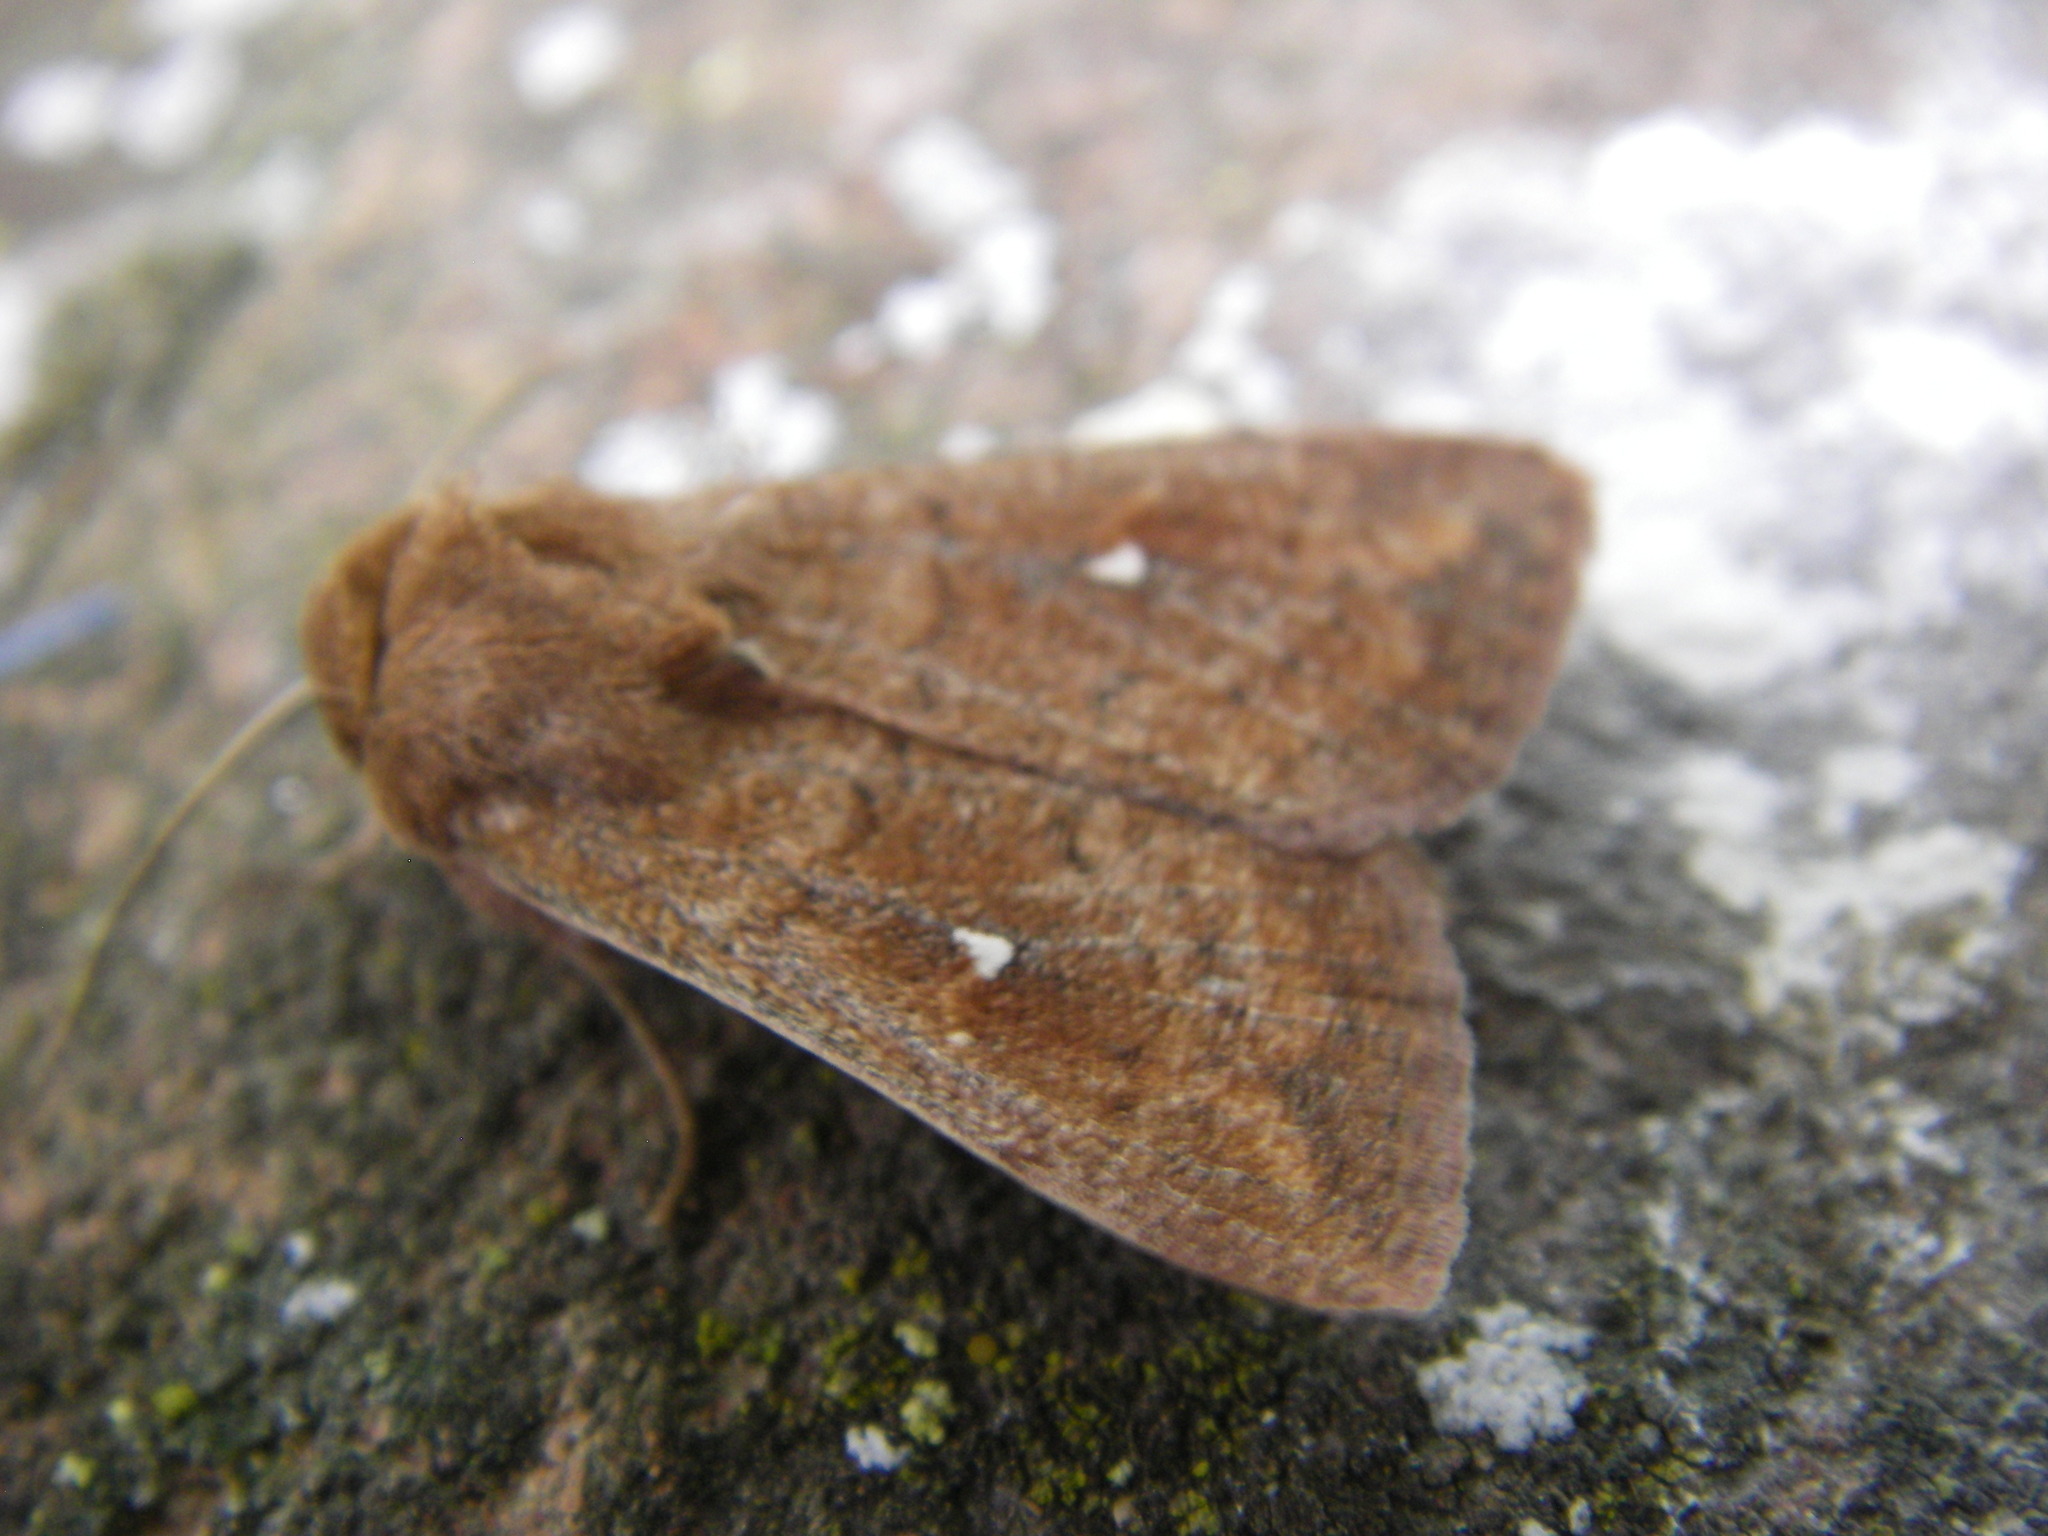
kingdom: Animalia
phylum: Arthropoda
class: Insecta
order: Lepidoptera
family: Noctuidae
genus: Mythimna
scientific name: Mythimna albipuncta
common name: White-point
